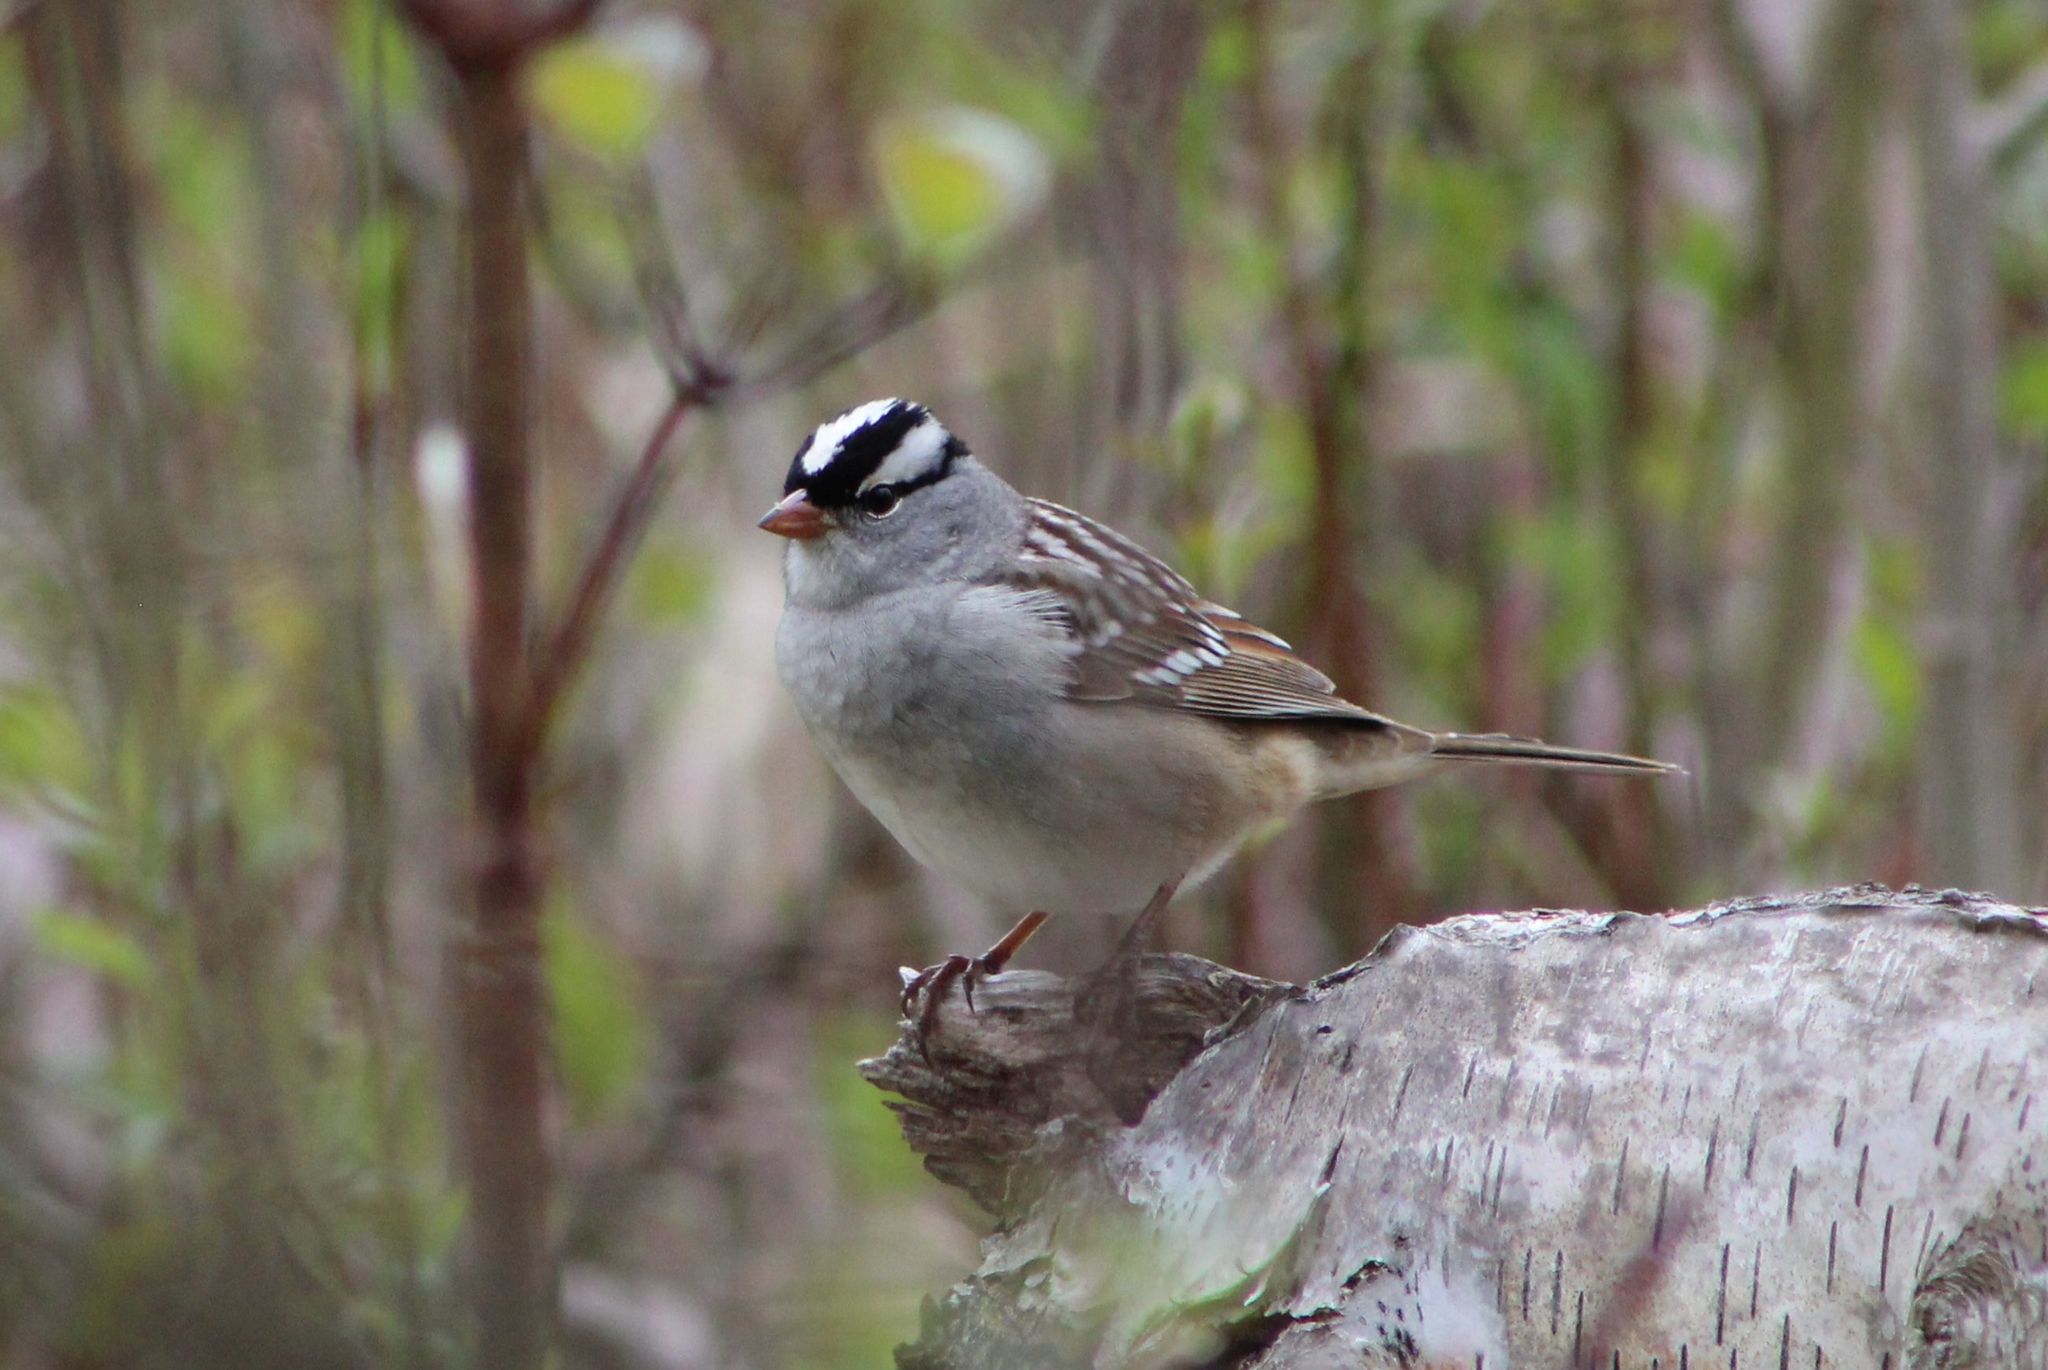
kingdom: Animalia
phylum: Chordata
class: Aves
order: Passeriformes
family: Passerellidae
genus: Zonotrichia
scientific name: Zonotrichia leucophrys
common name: White-crowned sparrow
